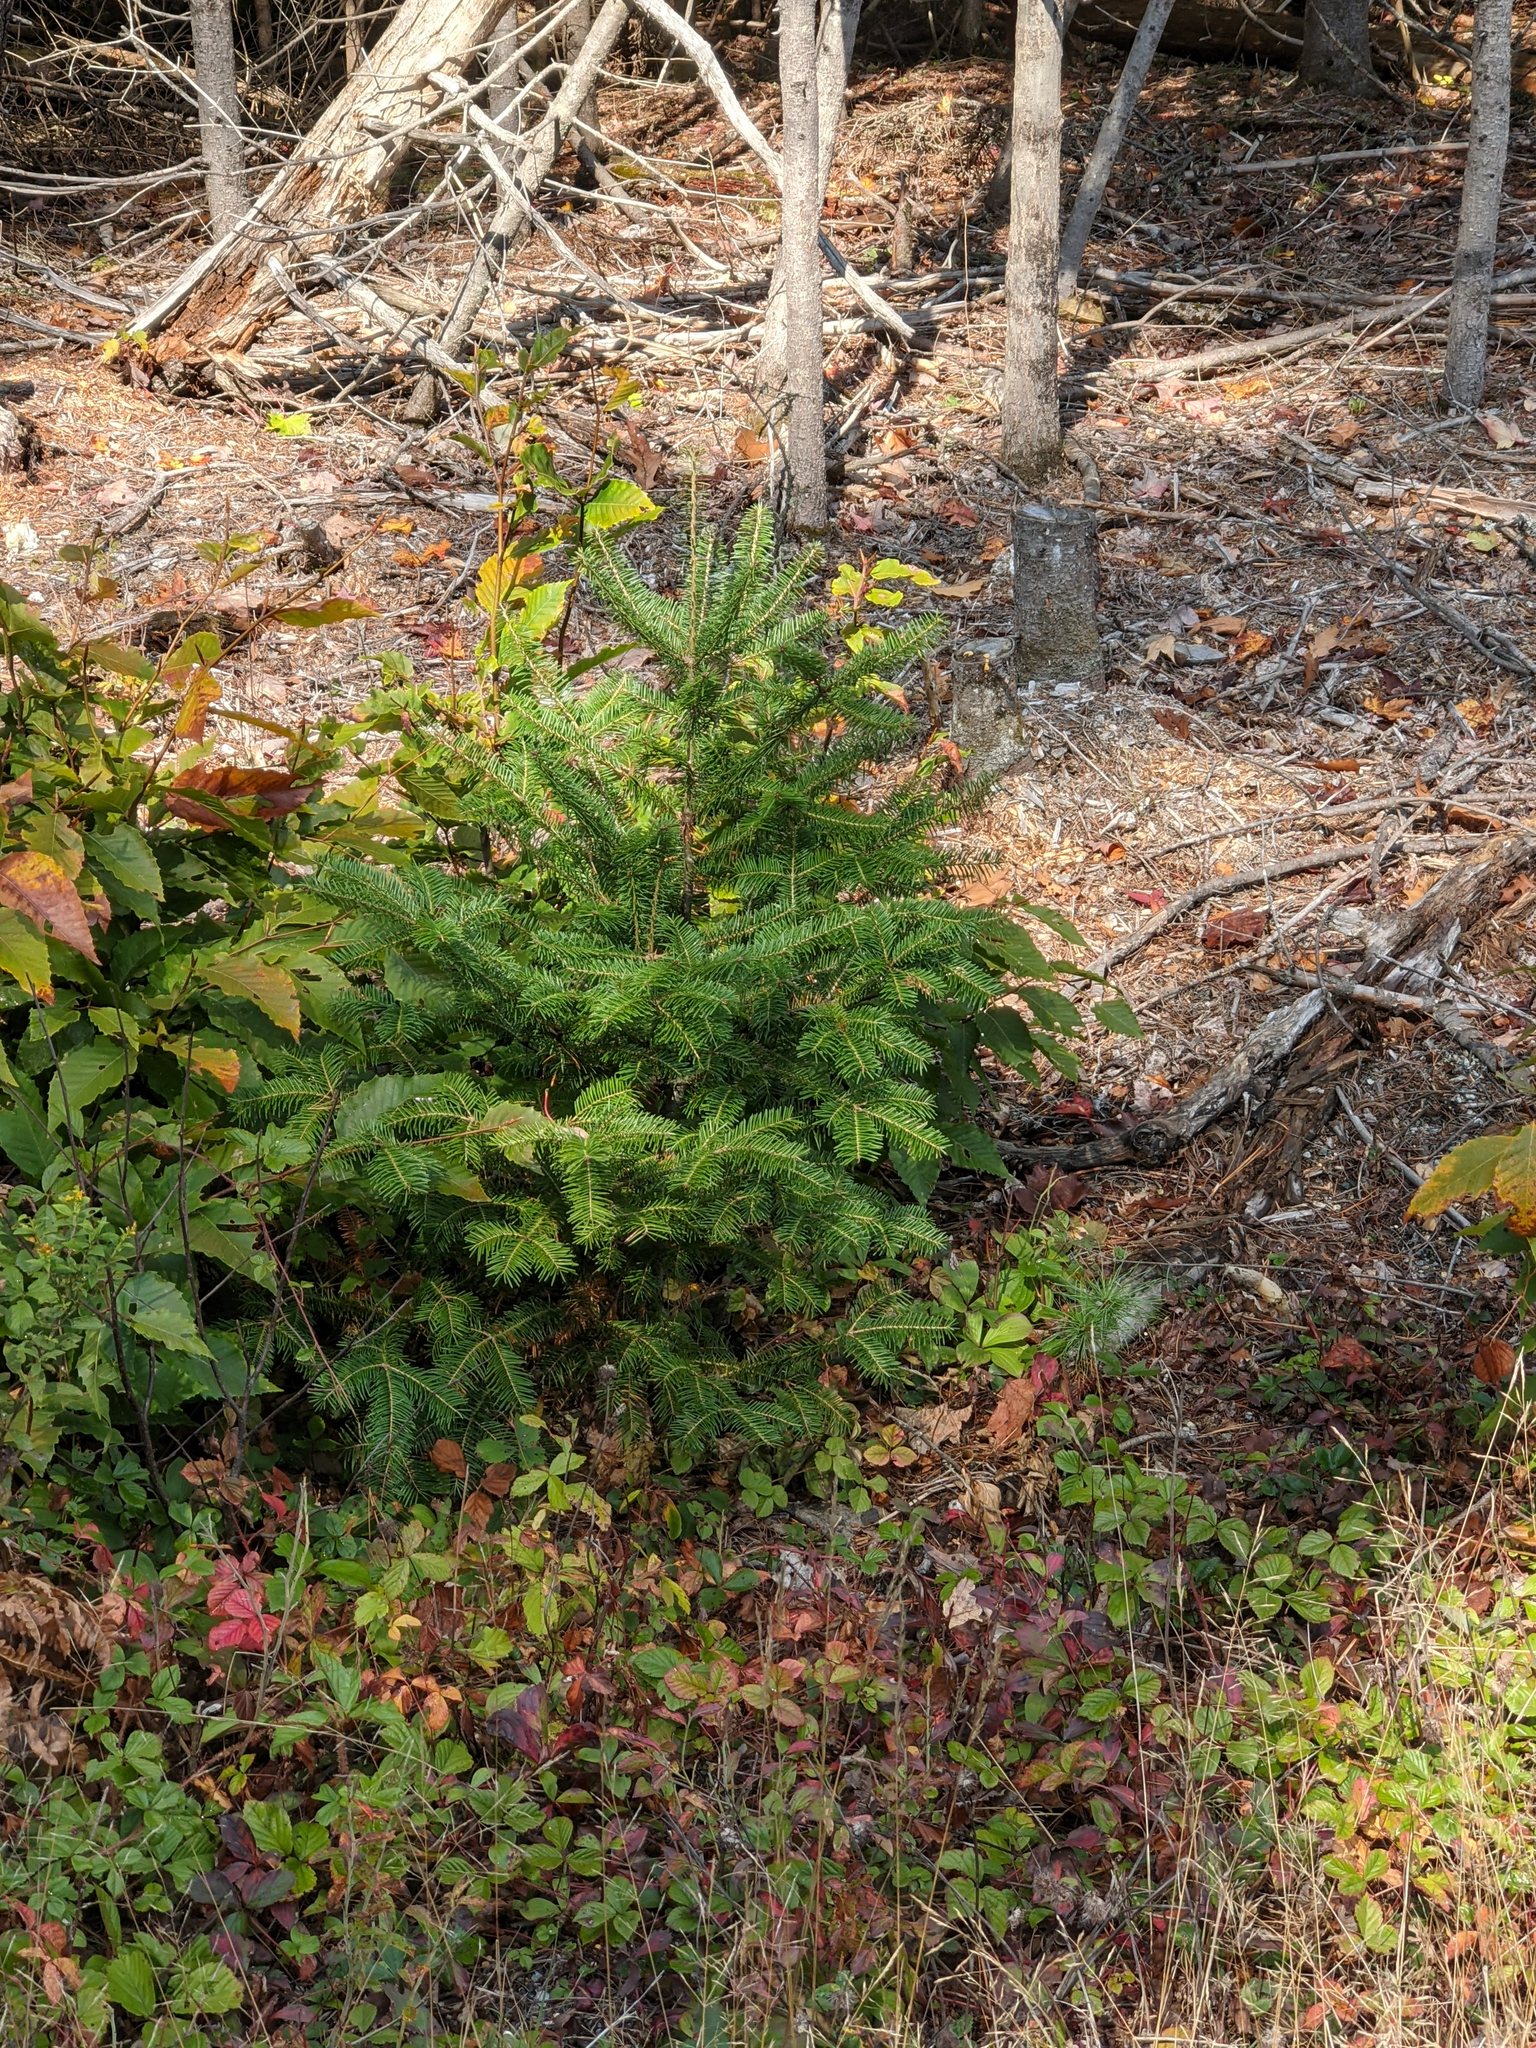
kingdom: Plantae
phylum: Tracheophyta
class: Pinopsida
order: Pinales
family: Pinaceae
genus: Abies
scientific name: Abies balsamea
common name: Balsam fir
